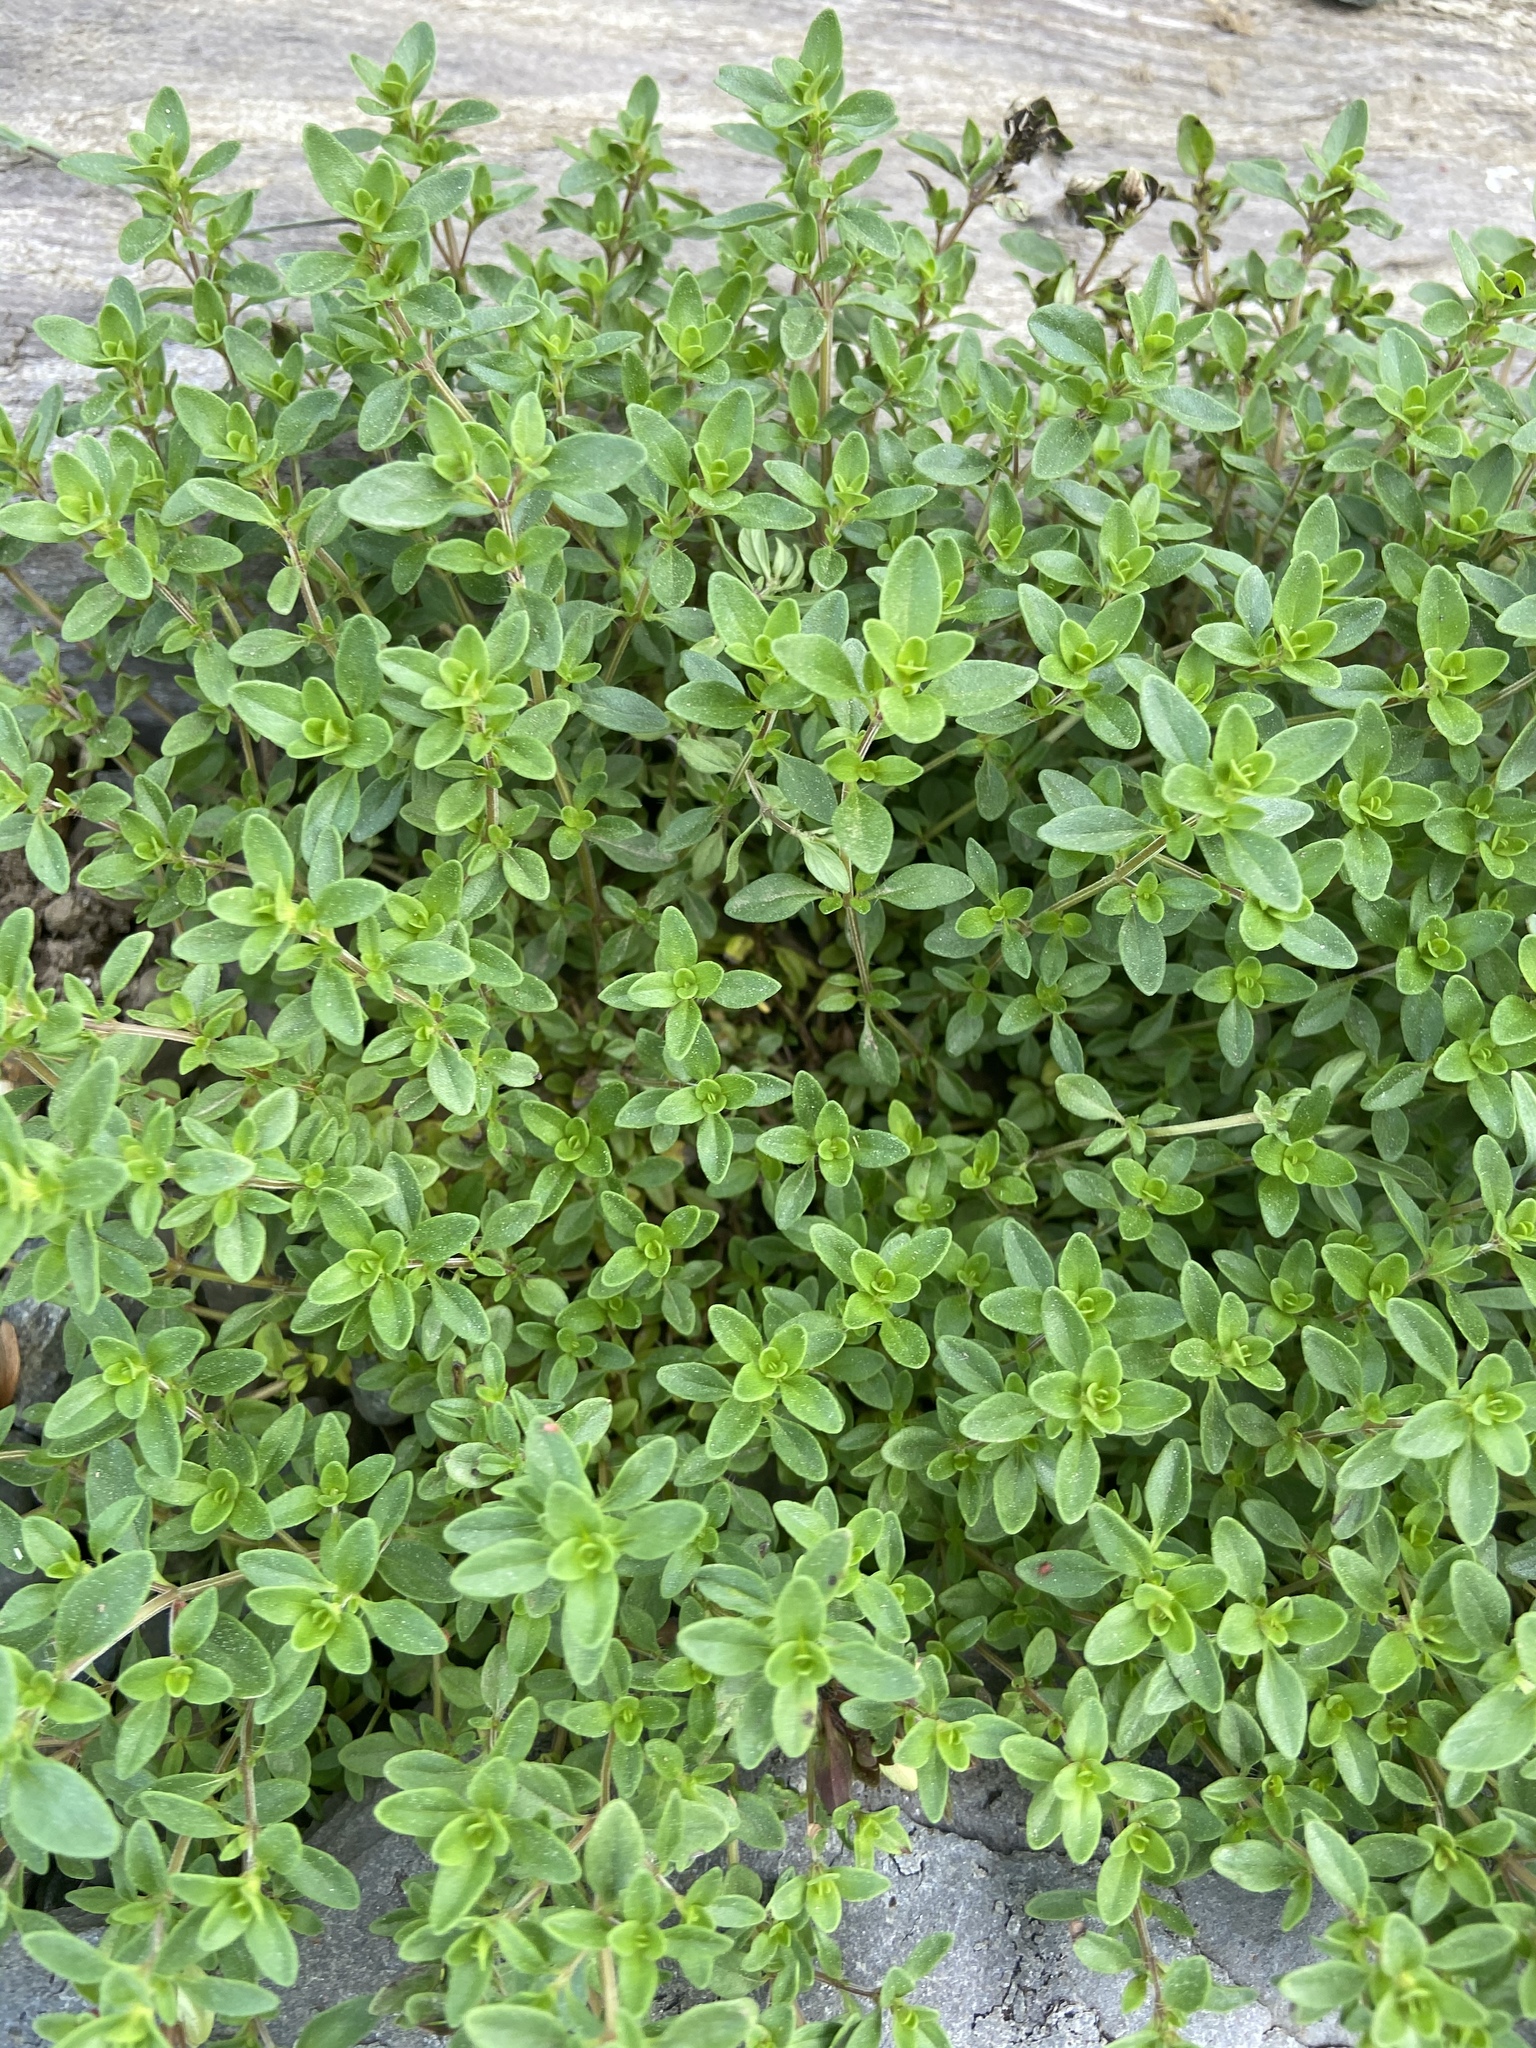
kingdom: Plantae
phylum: Tracheophyta
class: Magnoliopsida
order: Caryophyllales
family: Caryophyllaceae
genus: Dianthus
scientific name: Dianthus deltoides
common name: Maiden pink
